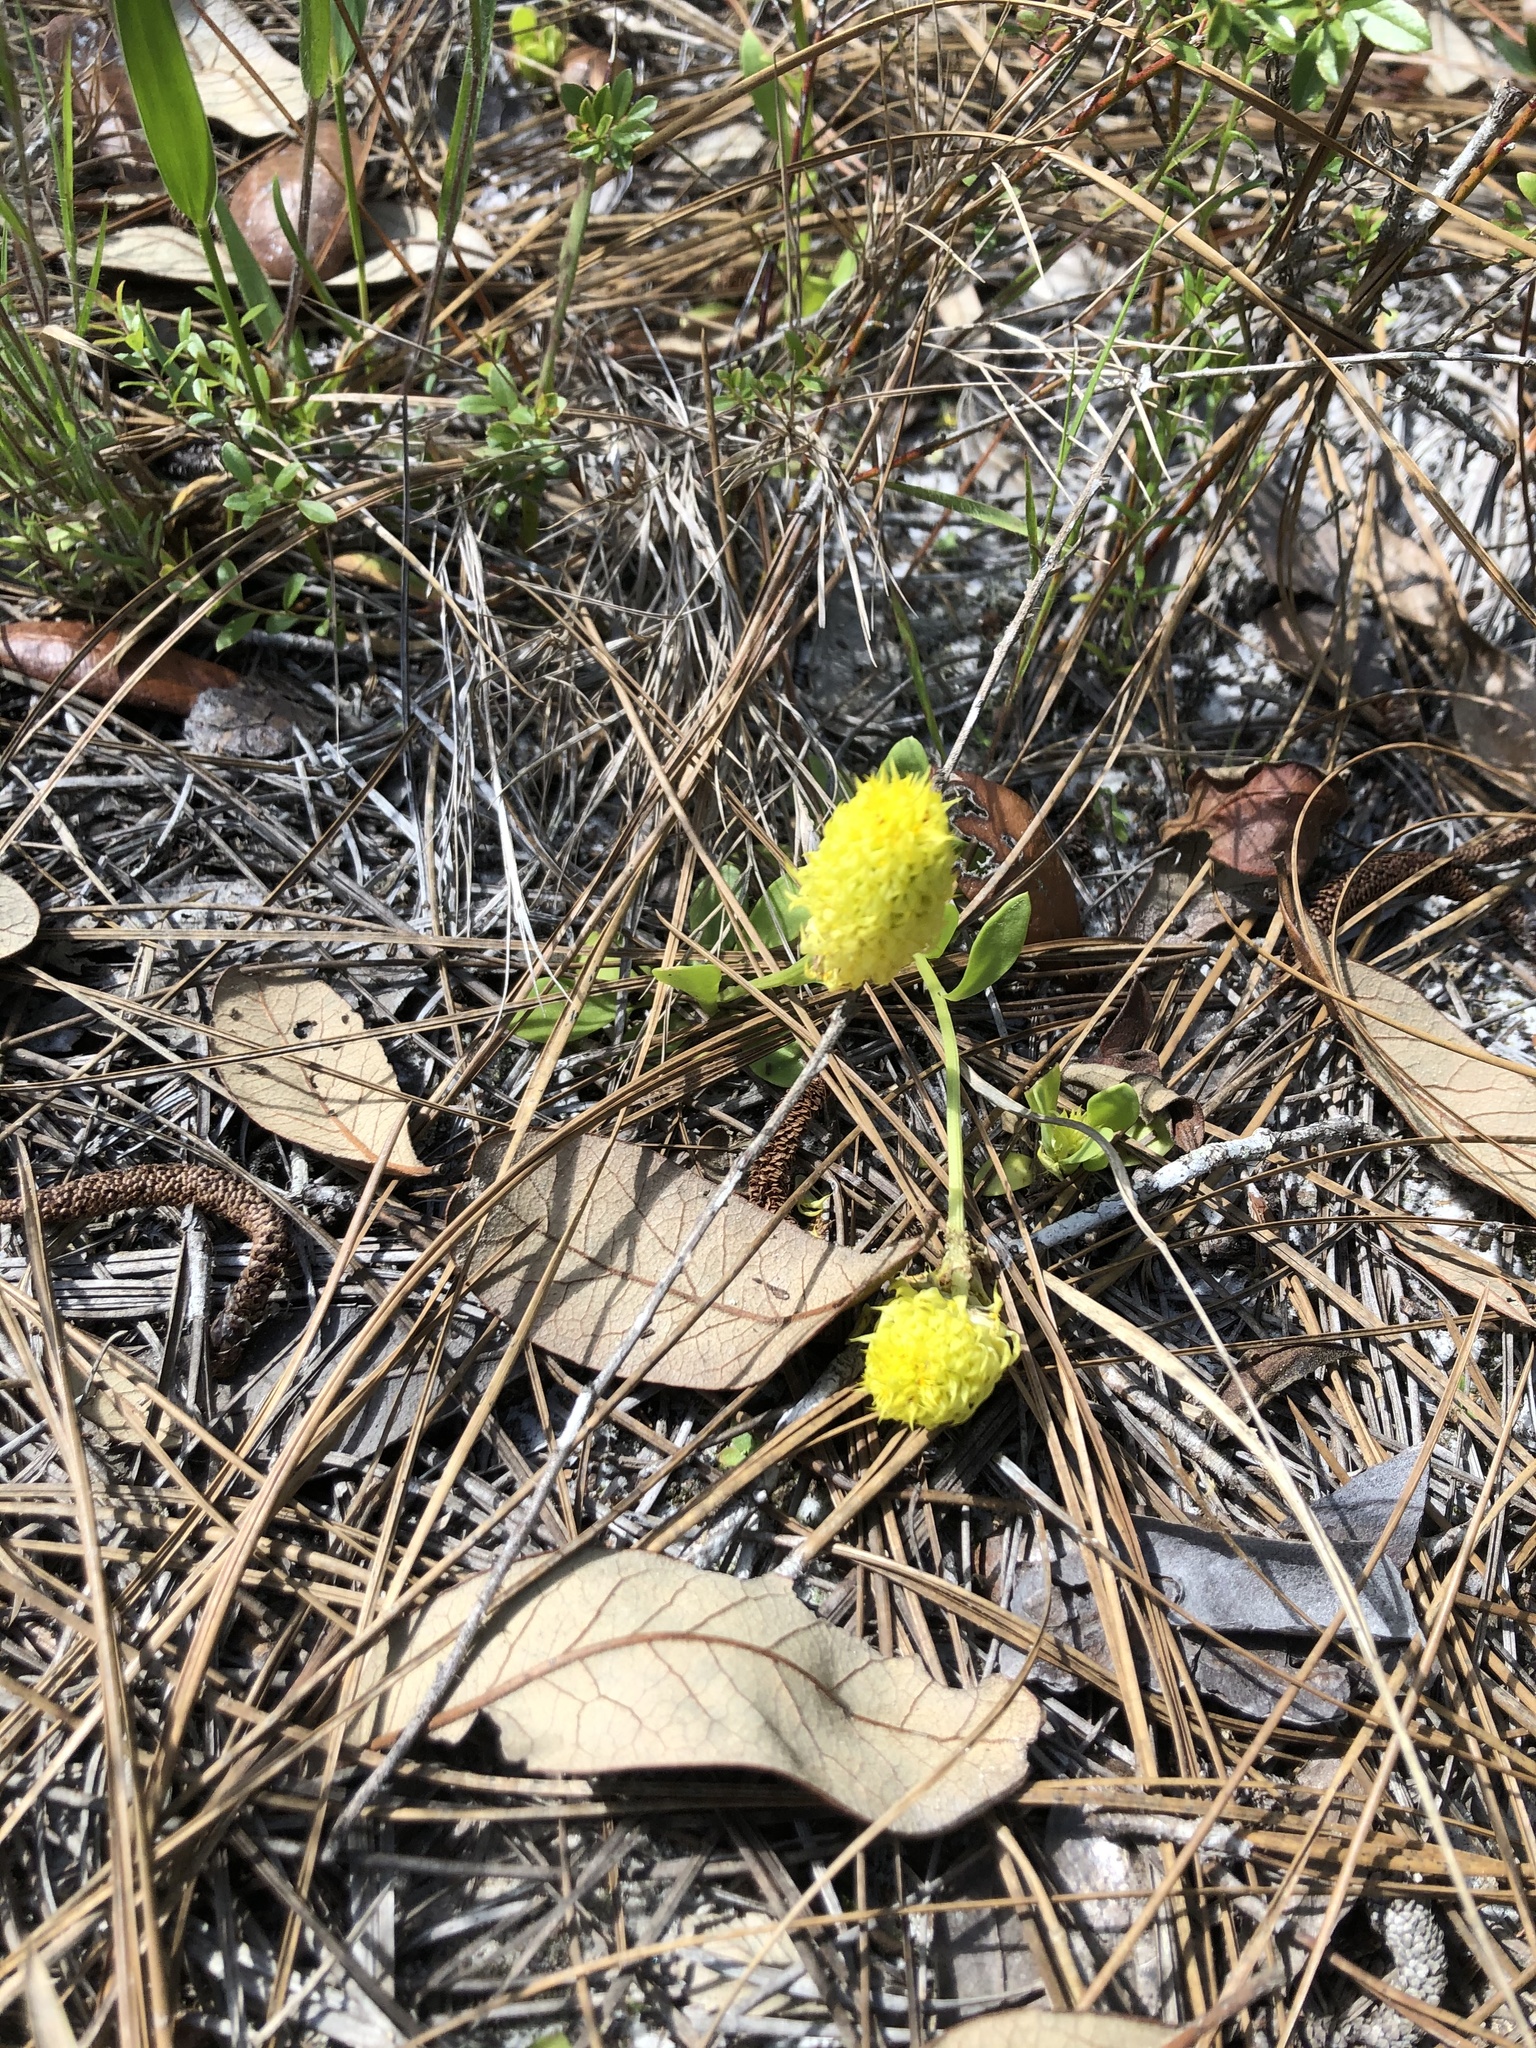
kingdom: Plantae
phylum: Tracheophyta
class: Magnoliopsida
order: Fabales
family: Polygalaceae
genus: Polygala
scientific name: Polygala nana
